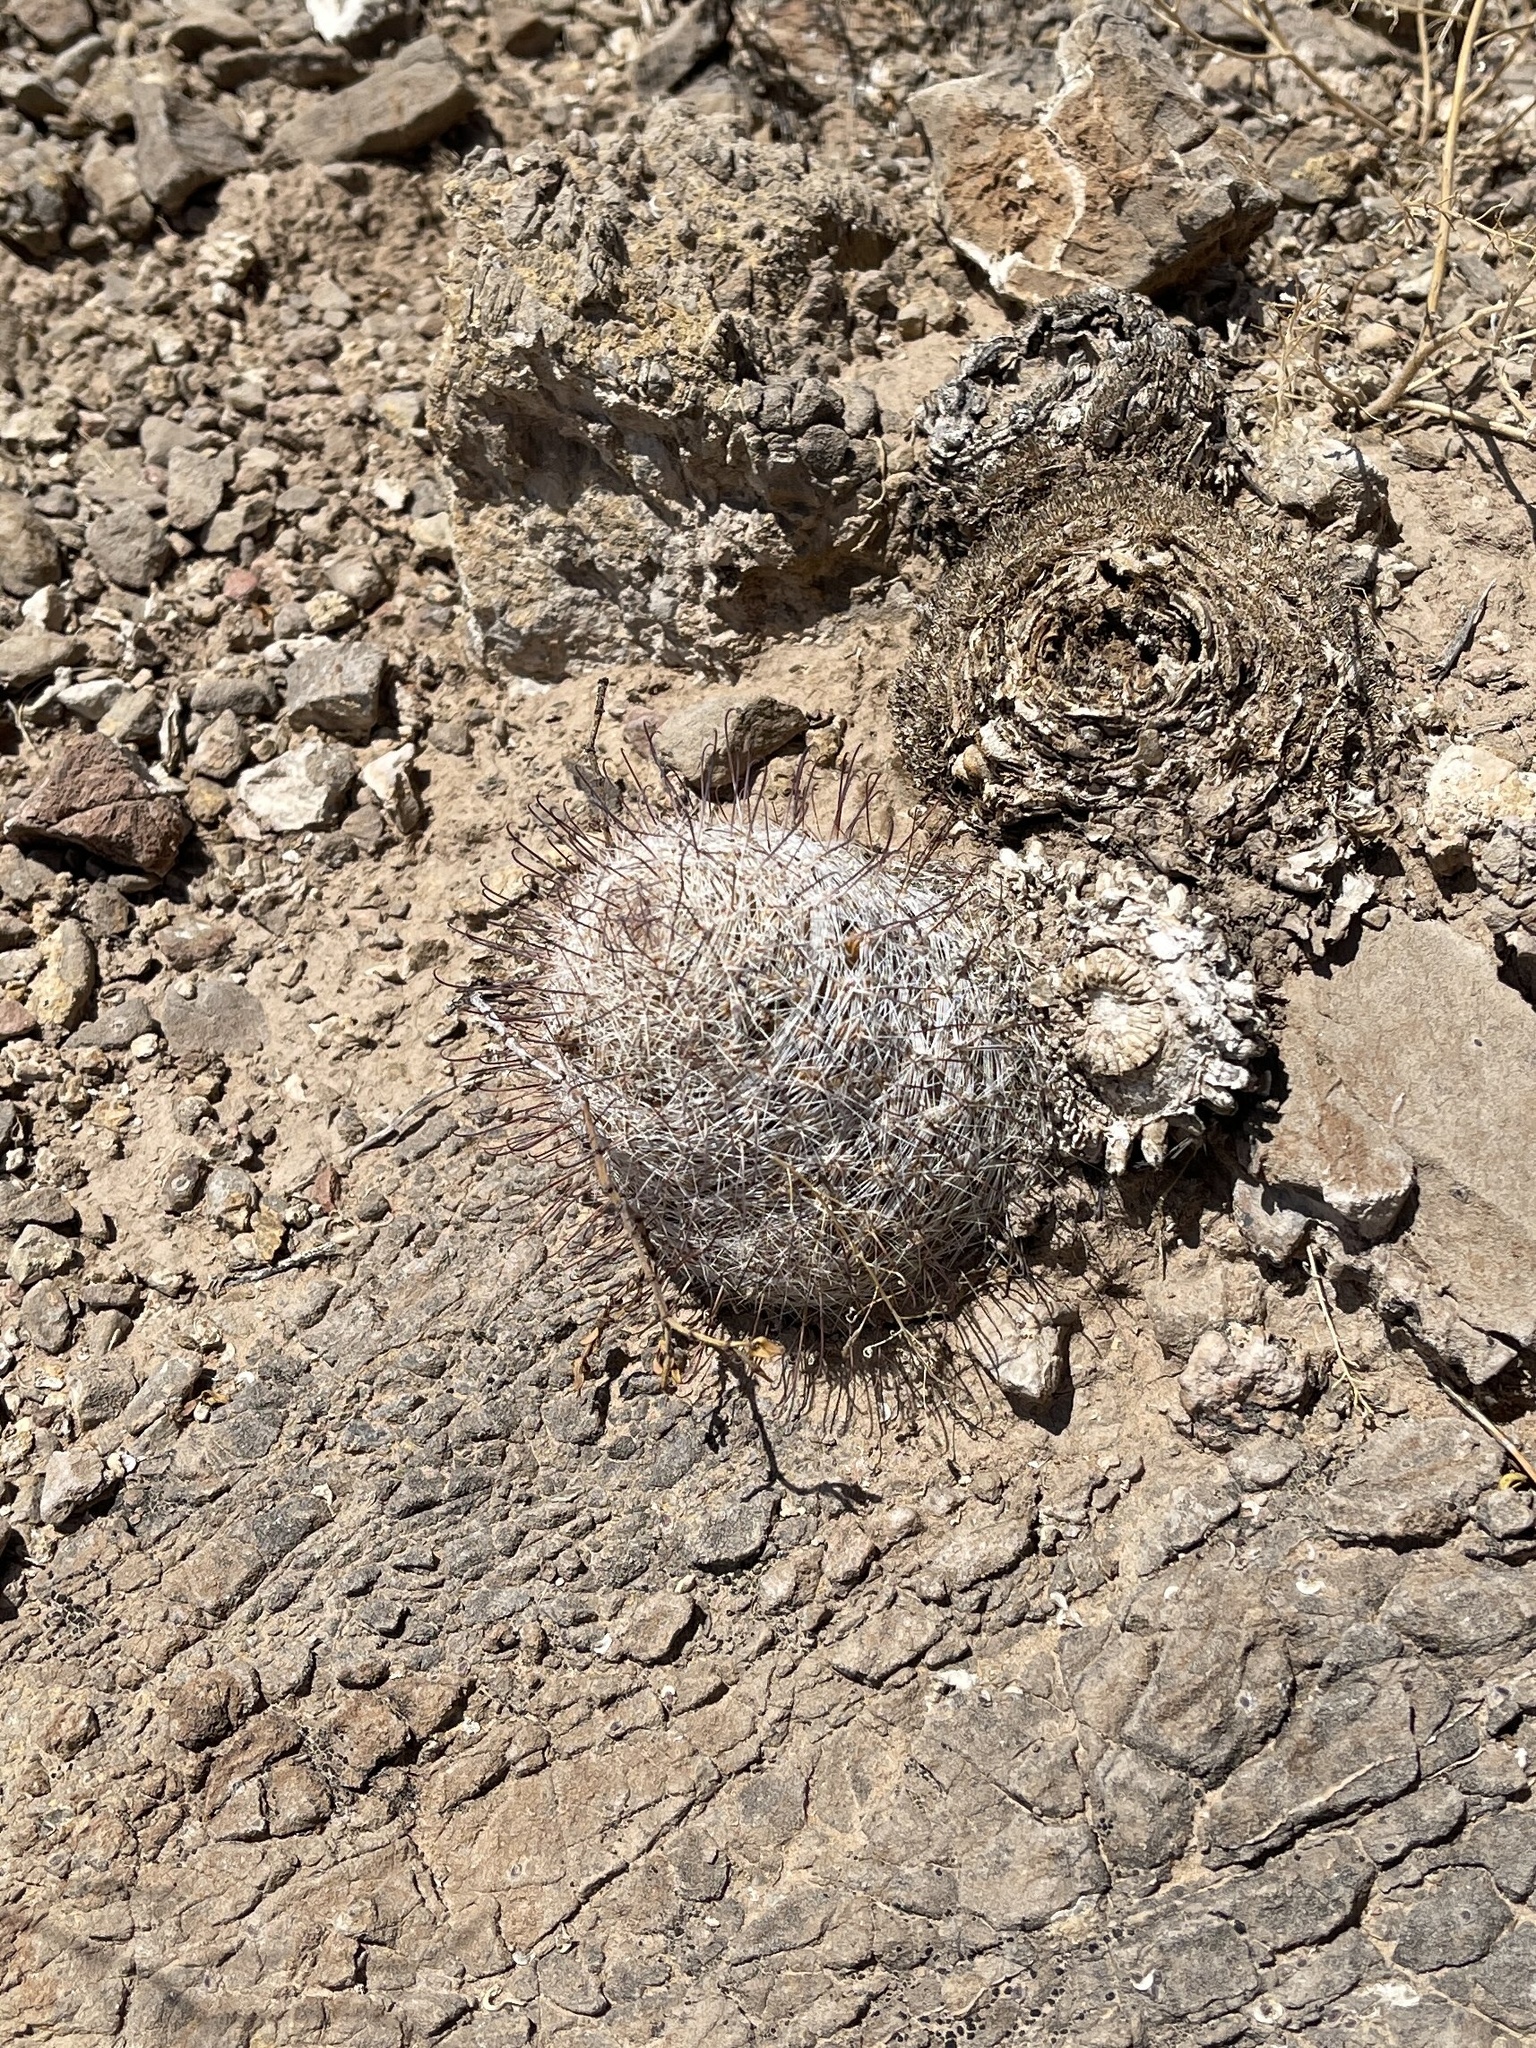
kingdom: Plantae
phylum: Tracheophyta
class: Magnoliopsida
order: Caryophyllales
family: Cactaceae
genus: Cochemiea
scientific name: Cochemiea grahamii
